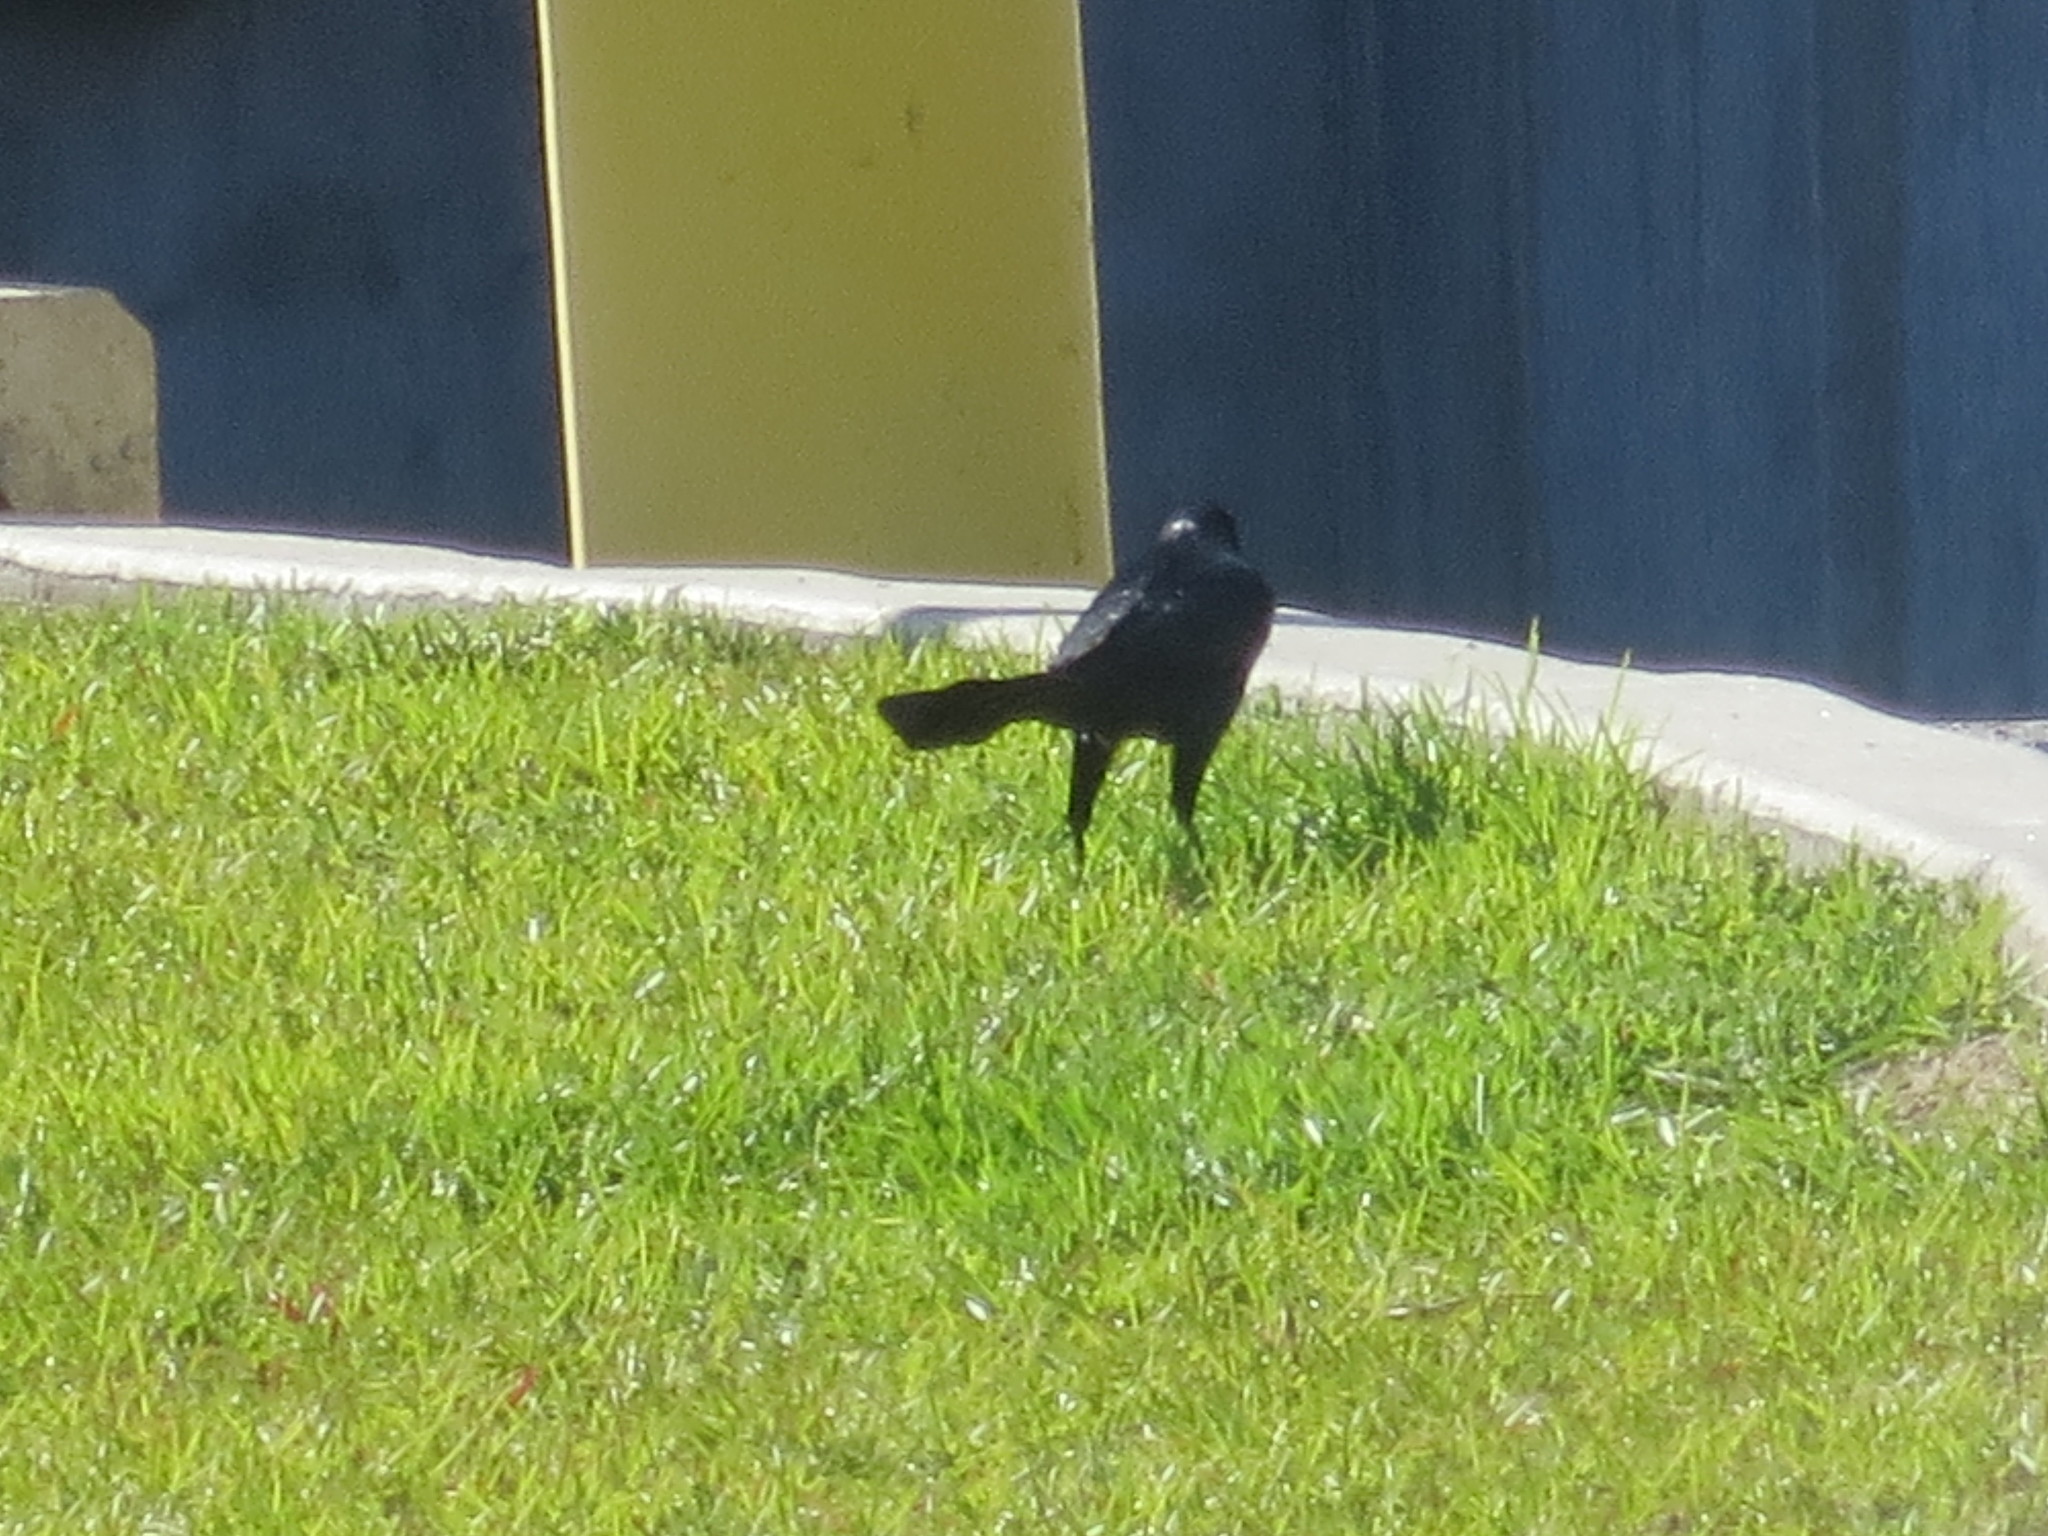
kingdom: Animalia
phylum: Chordata
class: Aves
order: Passeriformes
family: Icteridae
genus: Quiscalus
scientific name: Quiscalus major
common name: Boat-tailed grackle
